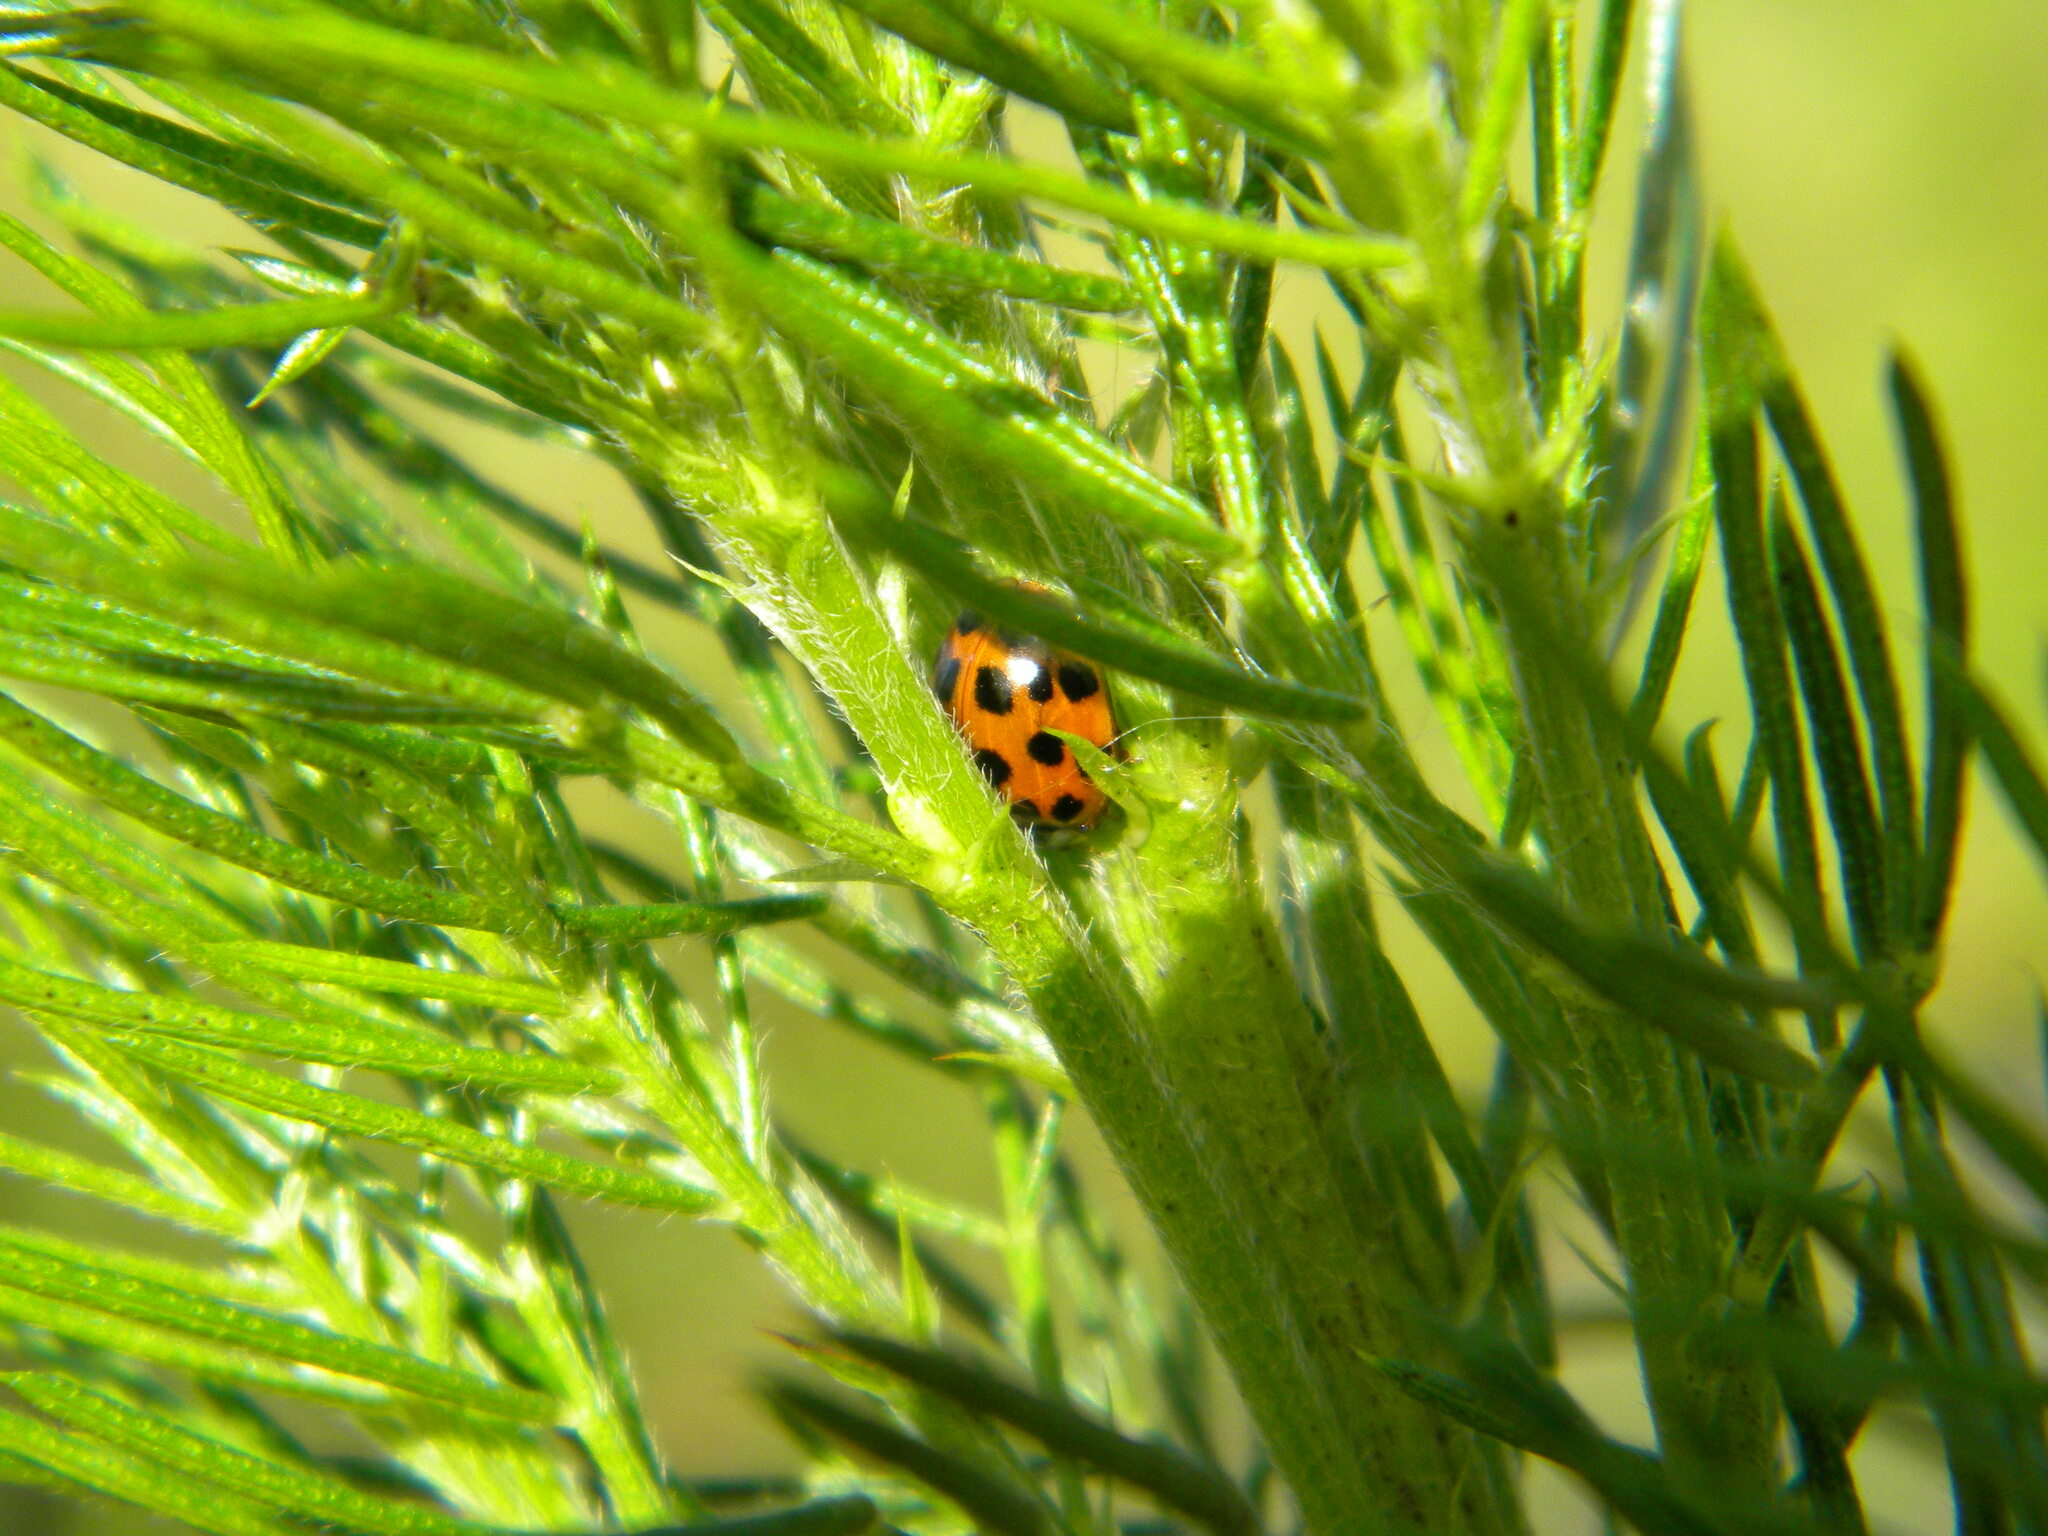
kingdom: Animalia
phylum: Arthropoda
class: Insecta
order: Coleoptera
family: Coccinellidae
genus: Harmonia
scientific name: Harmonia axyridis
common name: Harlequin ladybird
